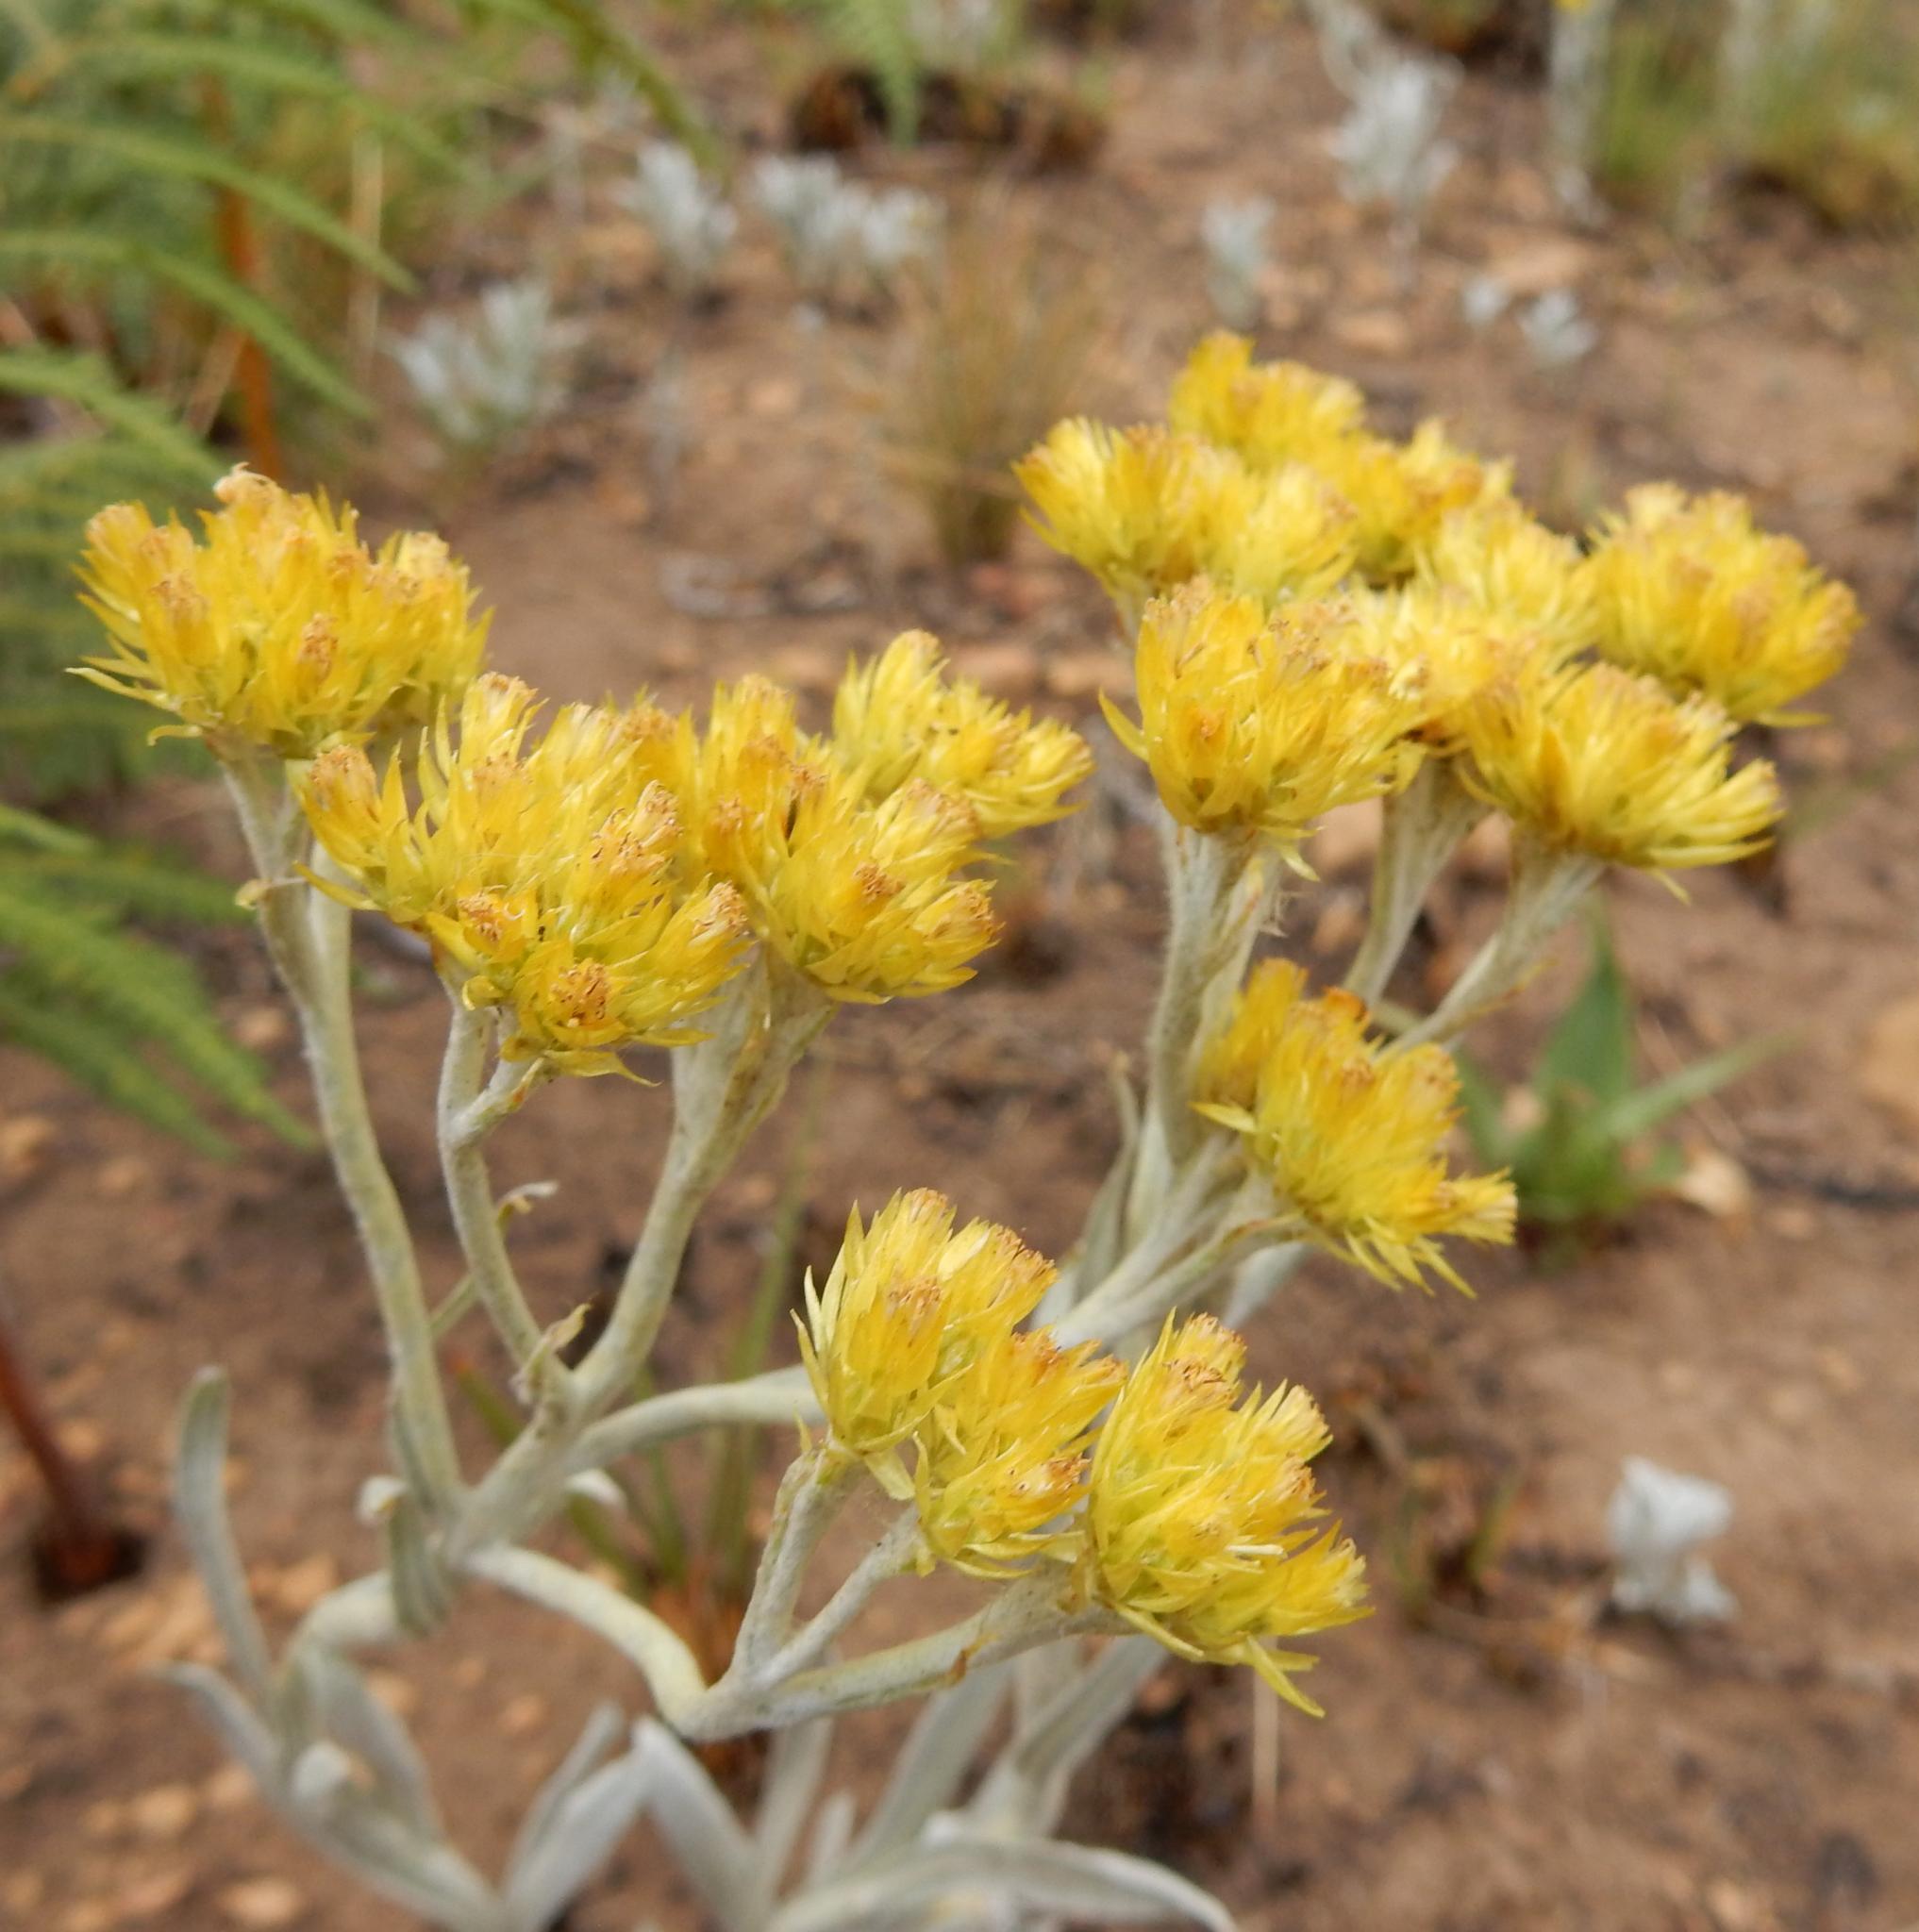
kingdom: Plantae
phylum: Tracheophyta
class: Magnoliopsida
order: Asterales
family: Asteraceae
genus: Helichrysum
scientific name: Helichrysum oreophilum
